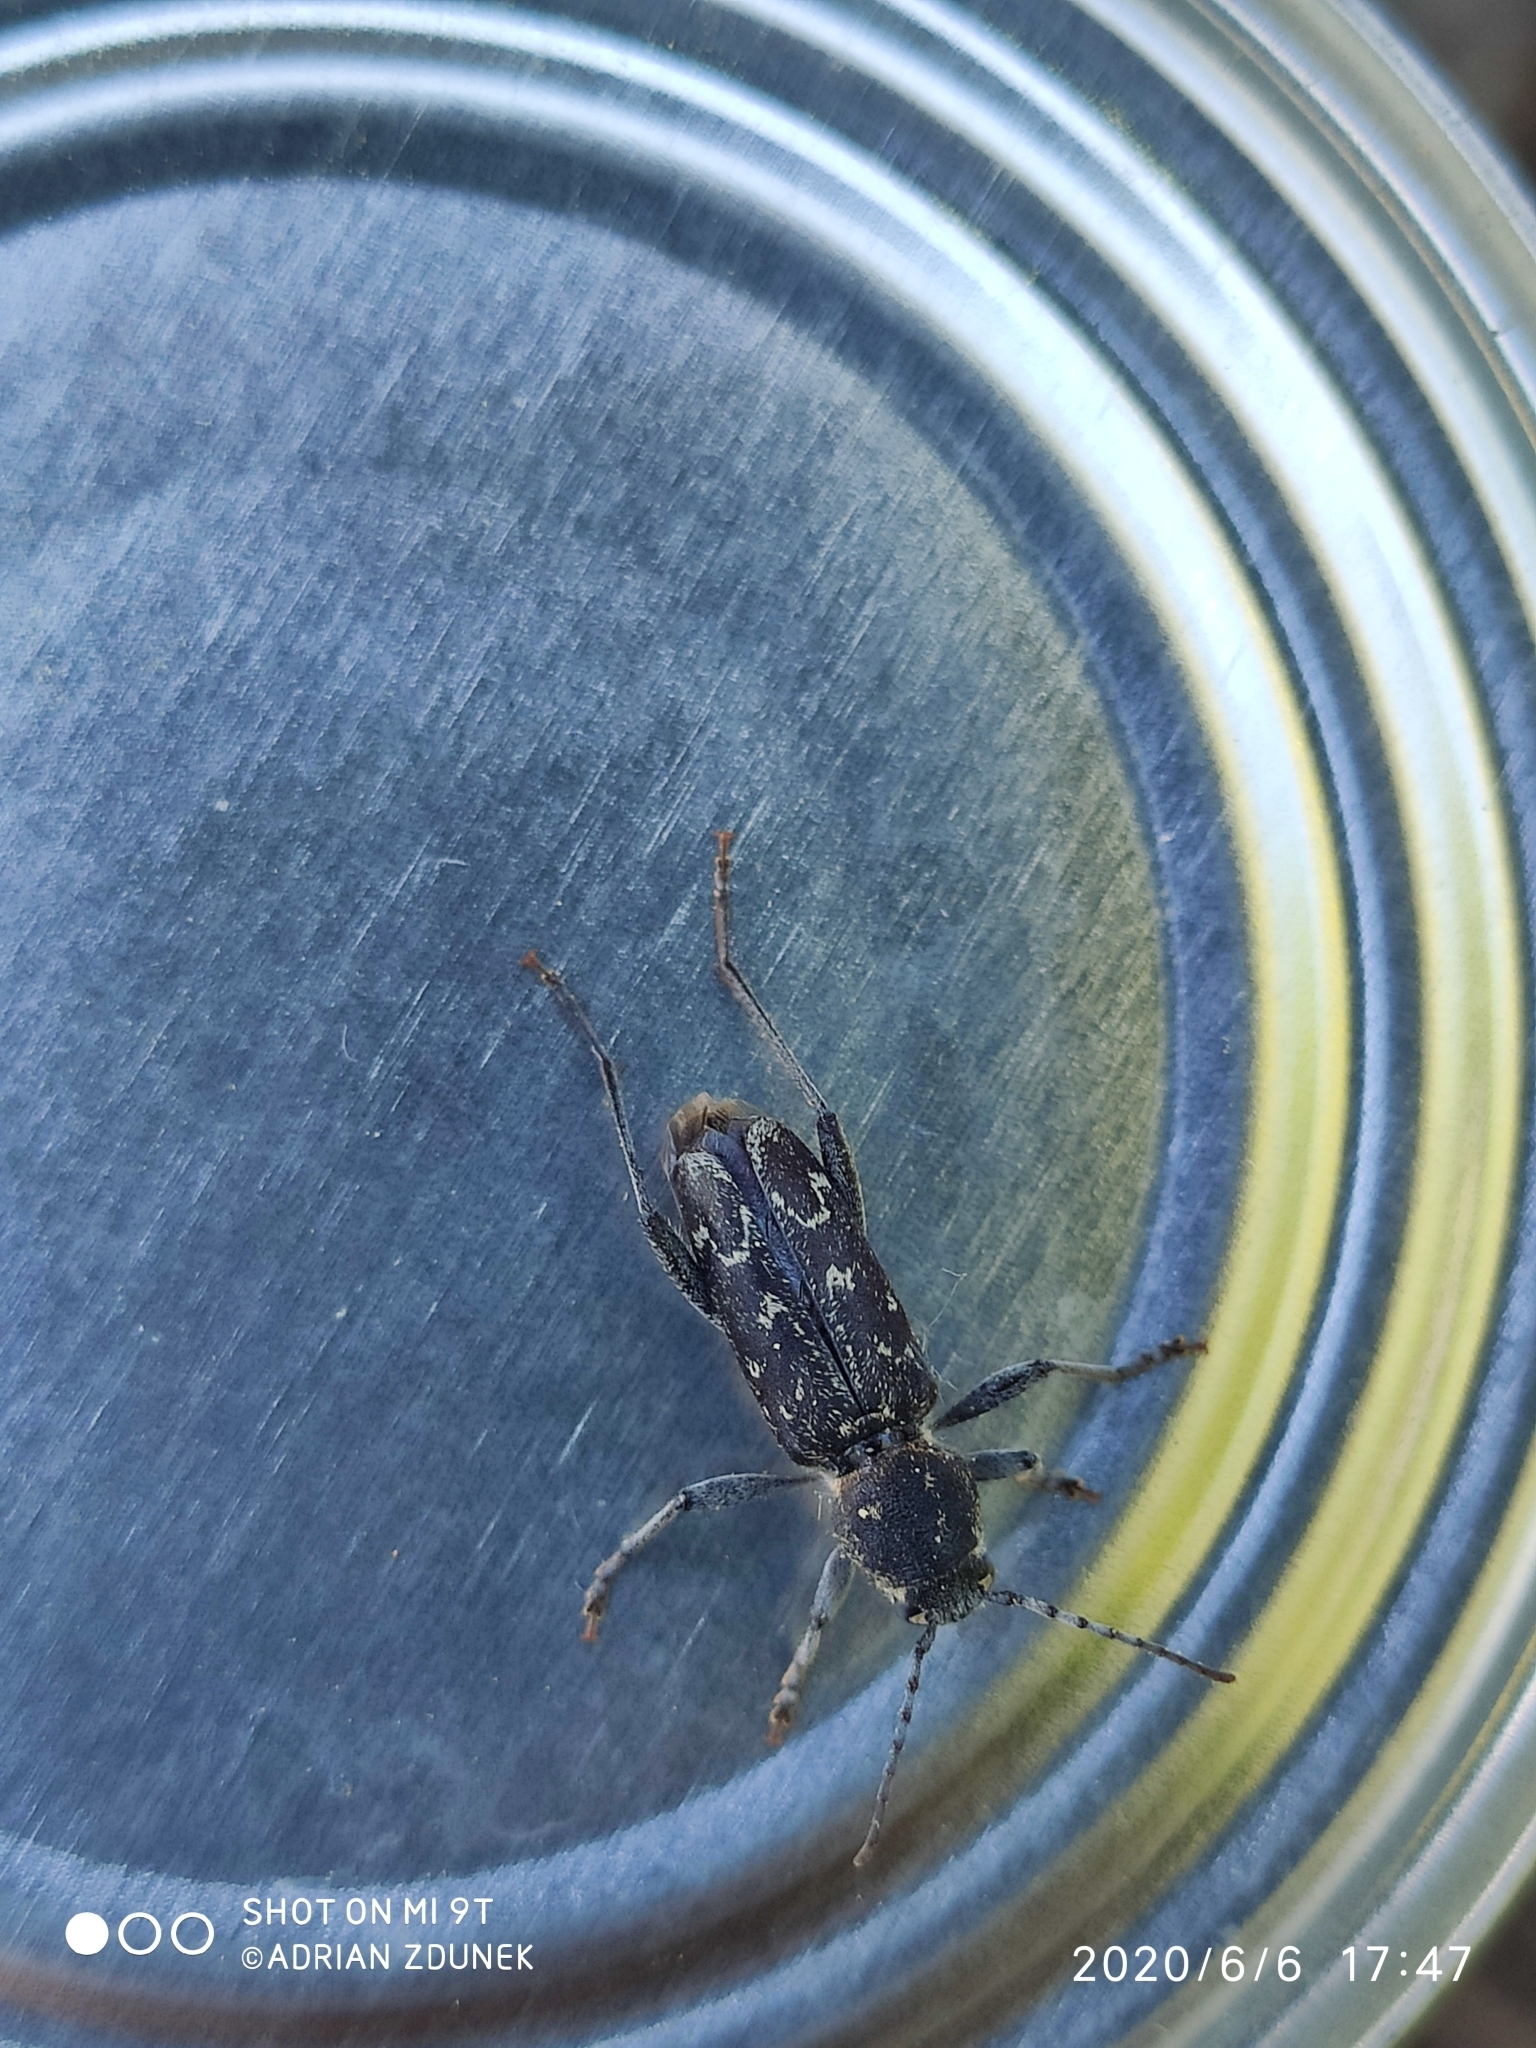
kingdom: Animalia
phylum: Arthropoda
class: Insecta
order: Coleoptera
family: Cerambycidae
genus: Xylotrechus
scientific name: Xylotrechus rusticus
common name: Grey tiger long-horned beetle
